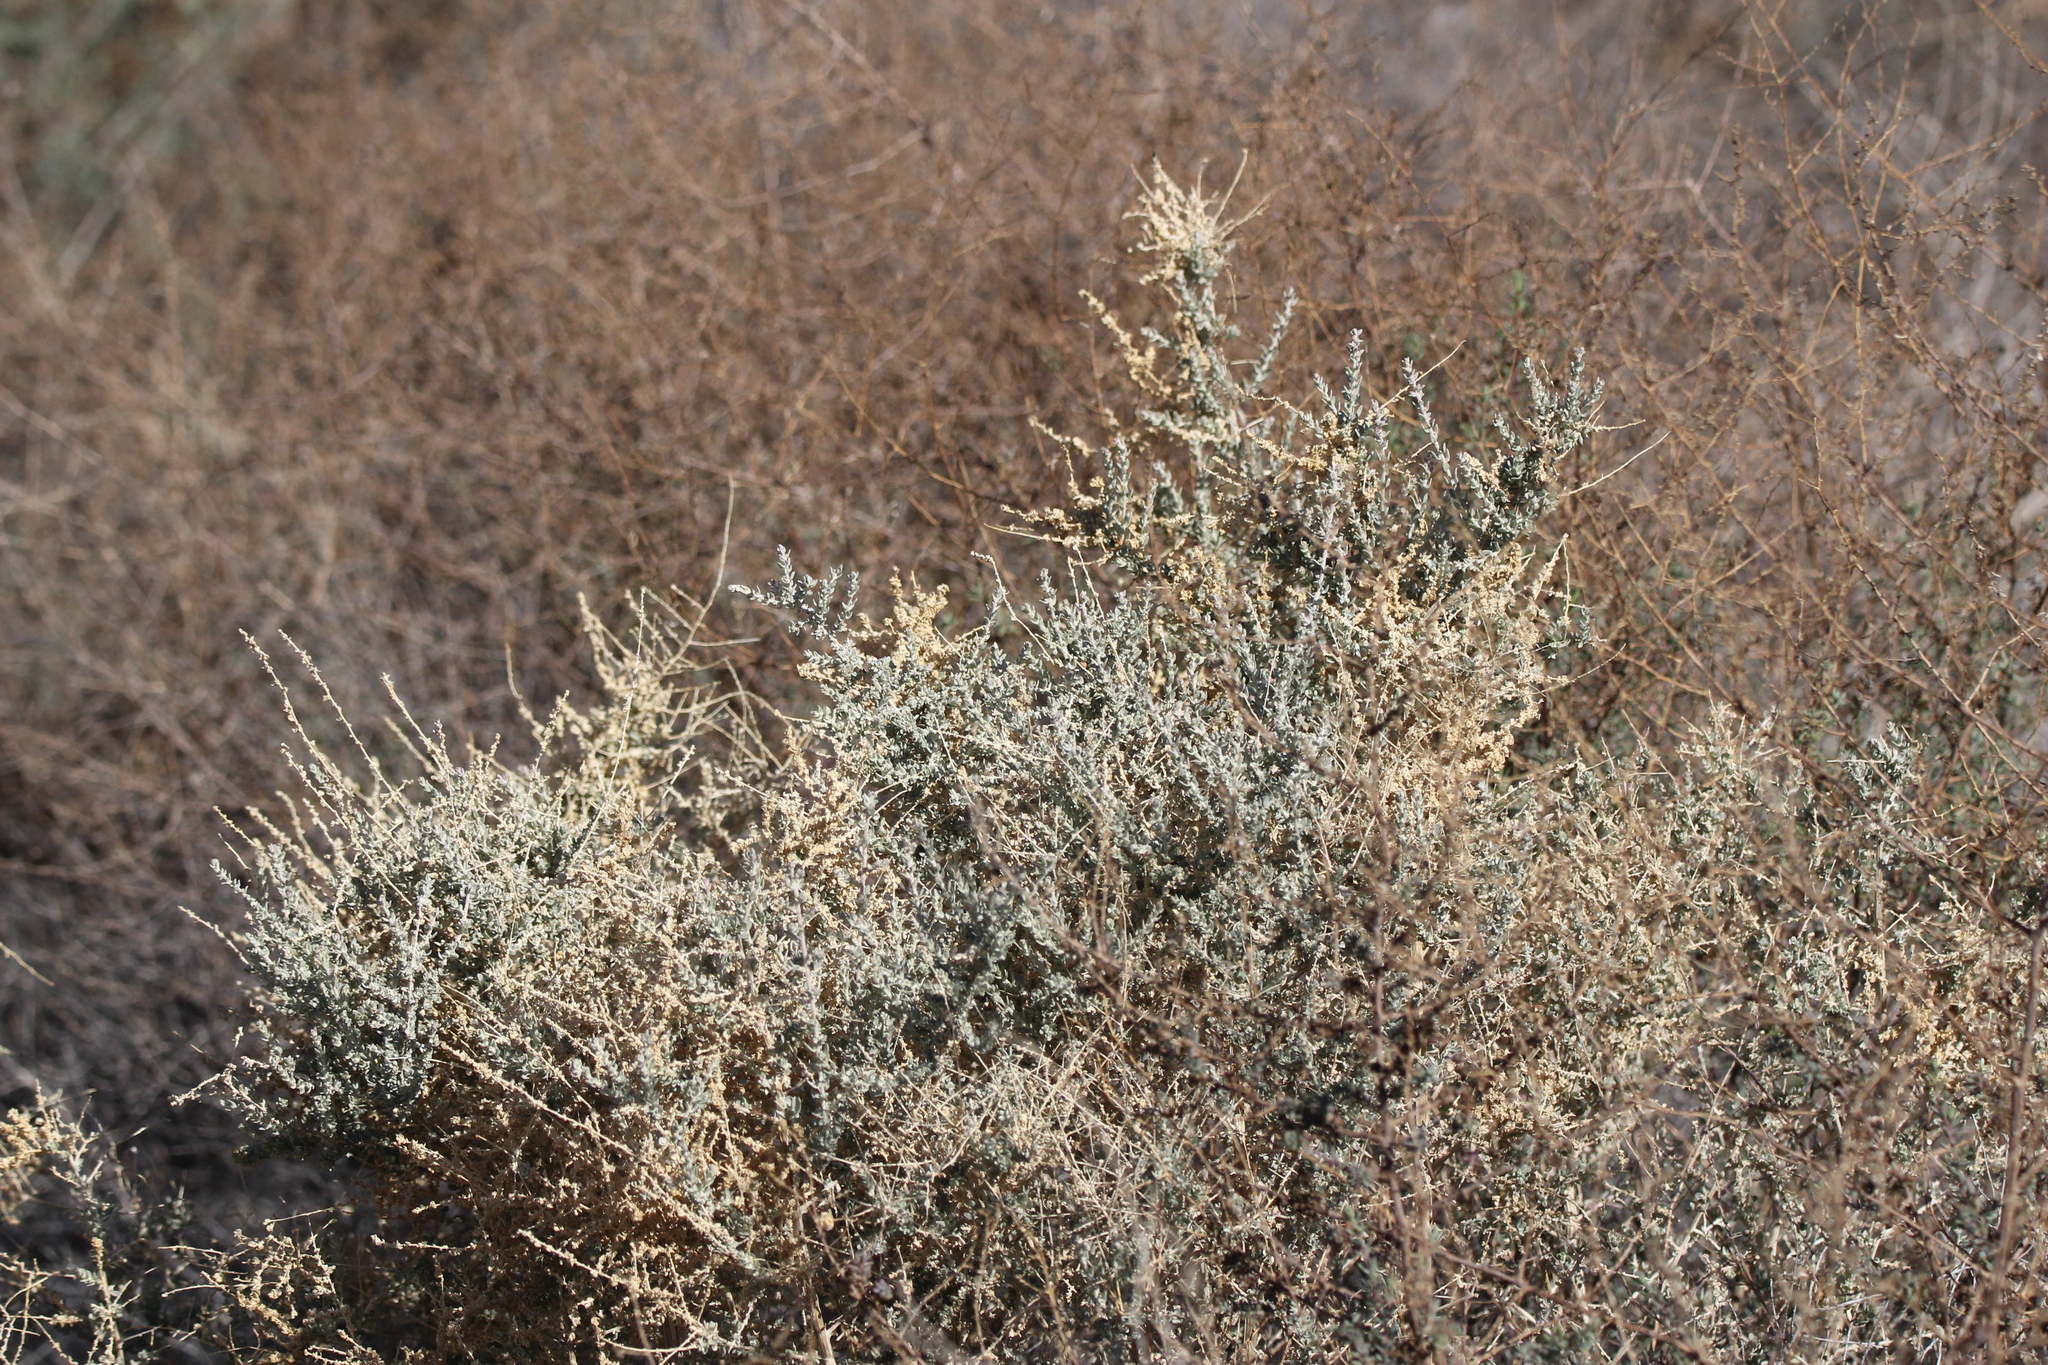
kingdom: Plantae
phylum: Tracheophyta
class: Magnoliopsida
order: Caryophyllales
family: Amaranthaceae
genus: Atriplex
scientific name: Atriplex polycarpa
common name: Desert saltbush
